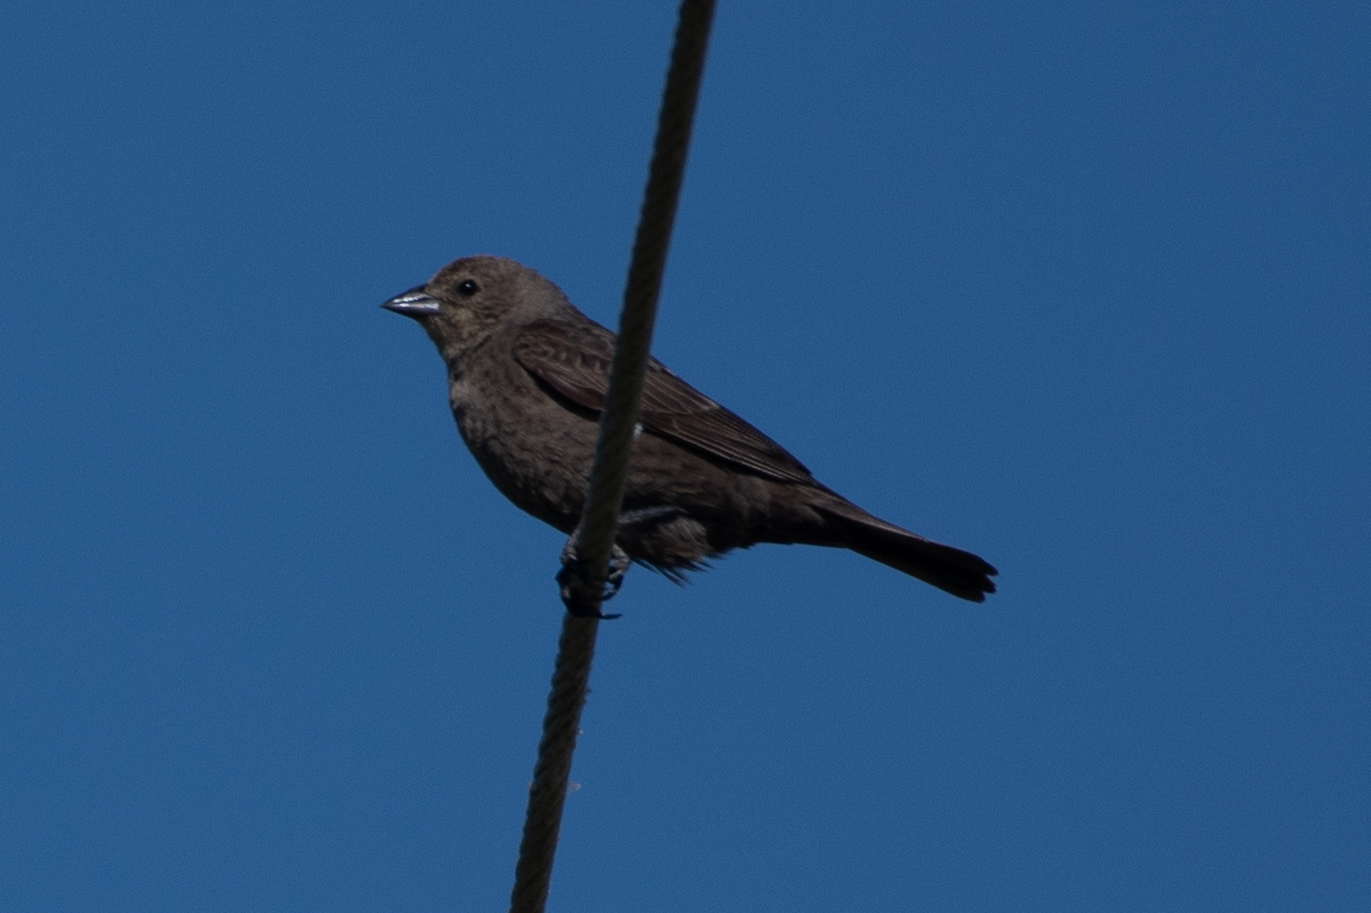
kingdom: Animalia
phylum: Chordata
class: Aves
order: Passeriformes
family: Icteridae
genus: Molothrus
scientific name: Molothrus ater
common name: Brown-headed cowbird
